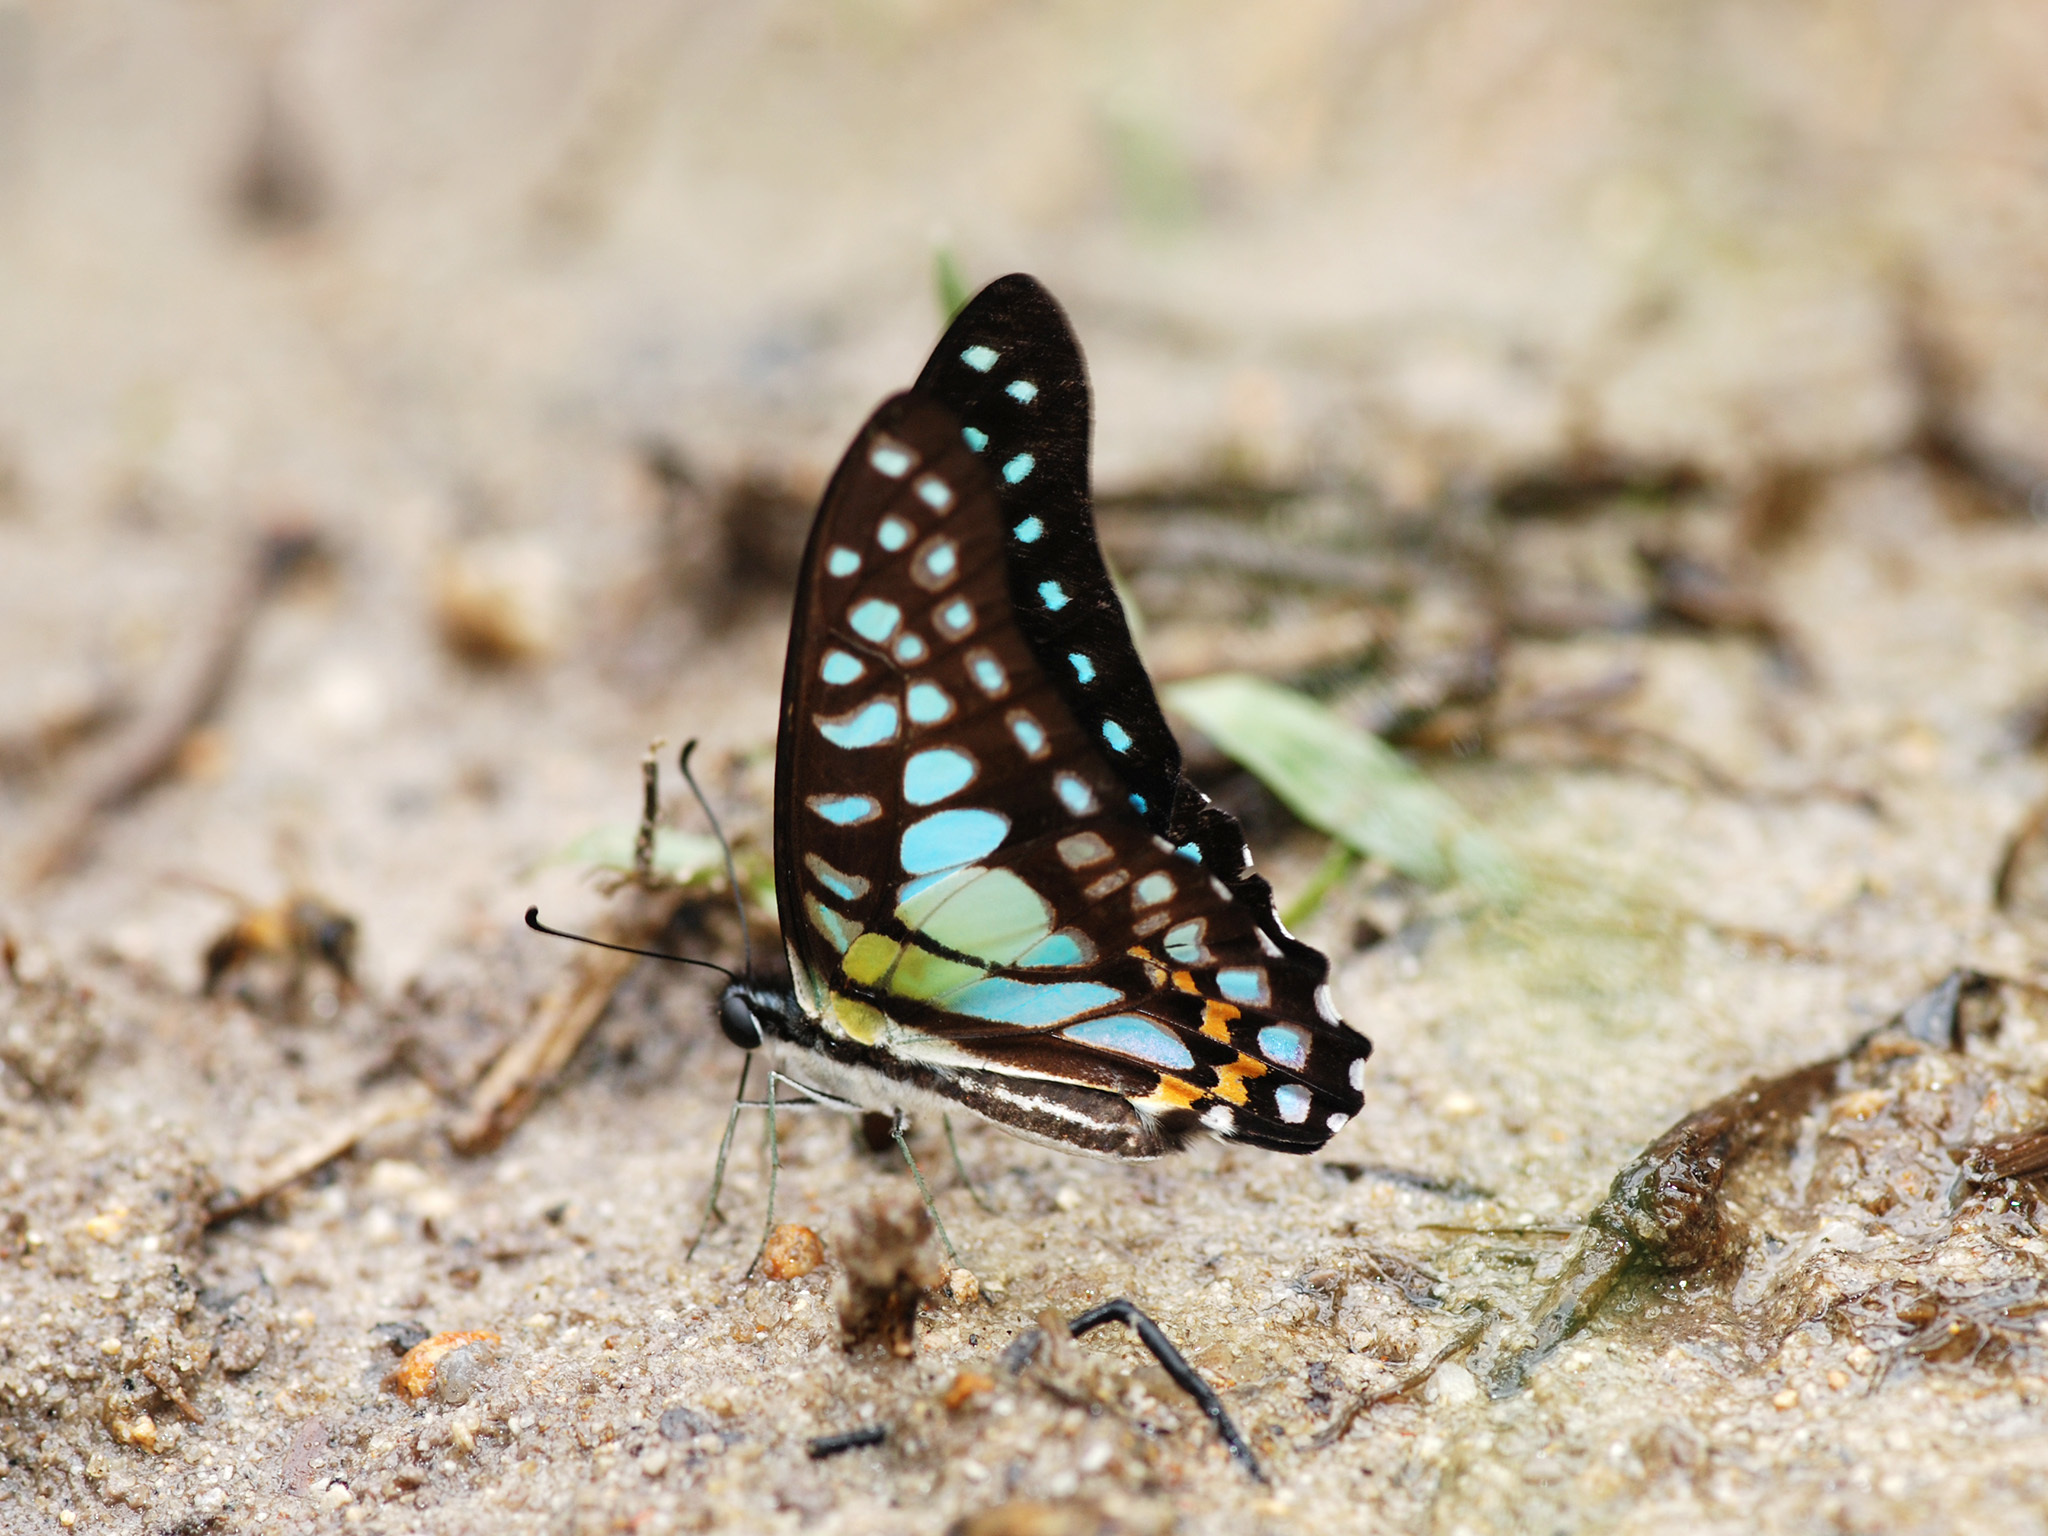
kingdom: Animalia
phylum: Arthropoda
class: Insecta
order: Lepidoptera
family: Papilionidae
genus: Graphium
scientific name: Graphium bathycles
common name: Veined jay
